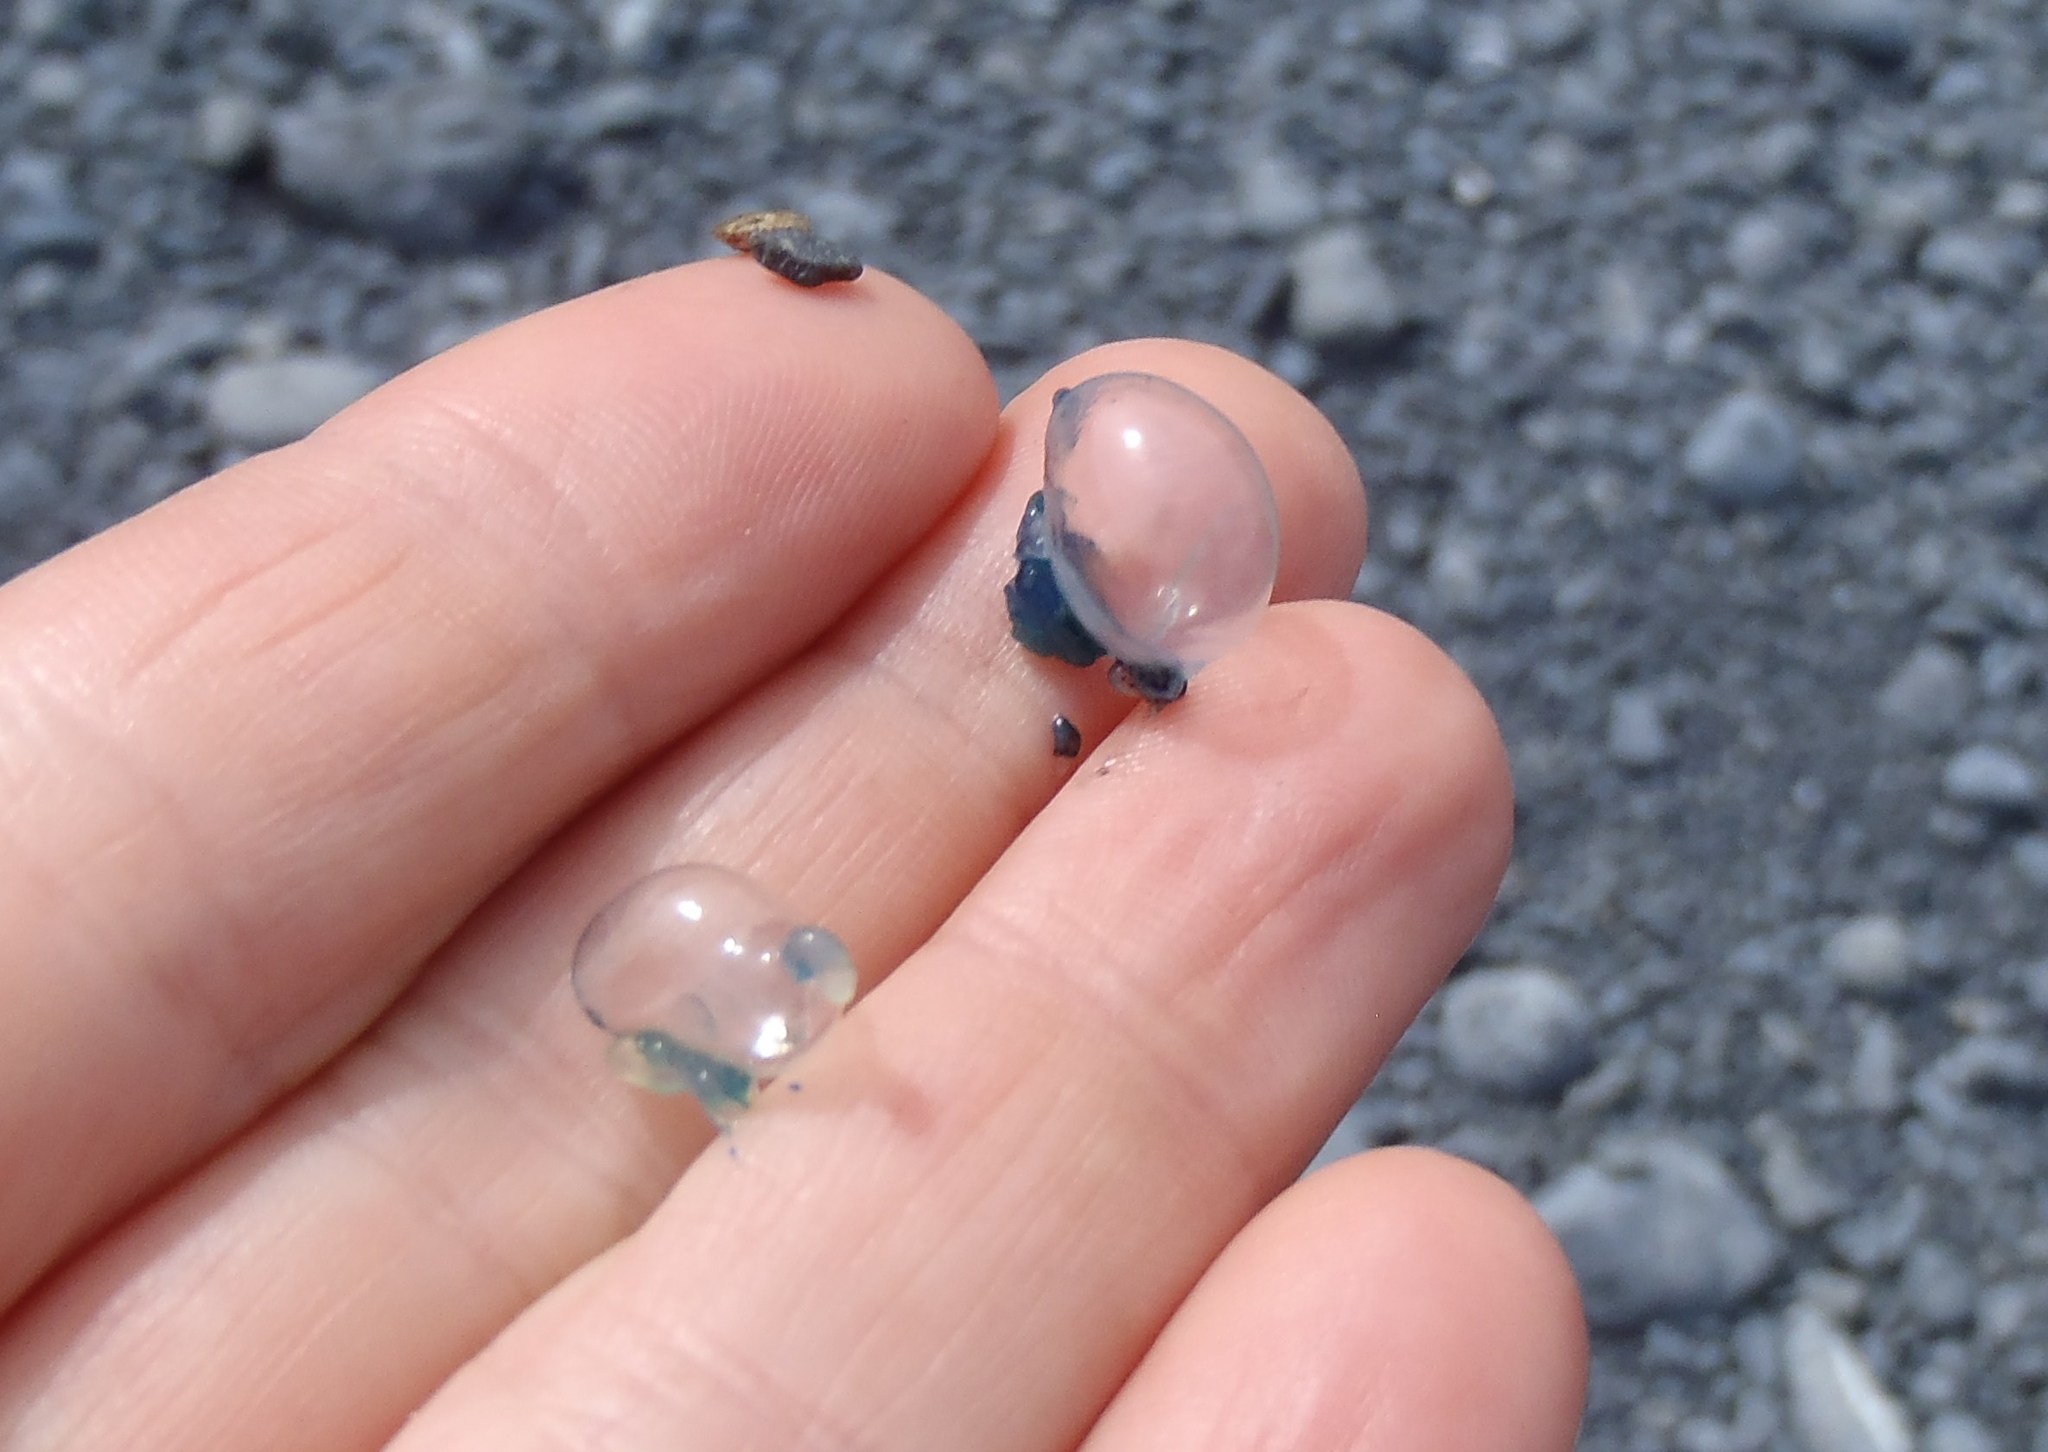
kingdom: Animalia
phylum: Cnidaria
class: Hydrozoa
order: Siphonophorae
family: Physaliidae
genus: Physalia
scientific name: Physalia physalis
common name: Portuguese man-of-war
